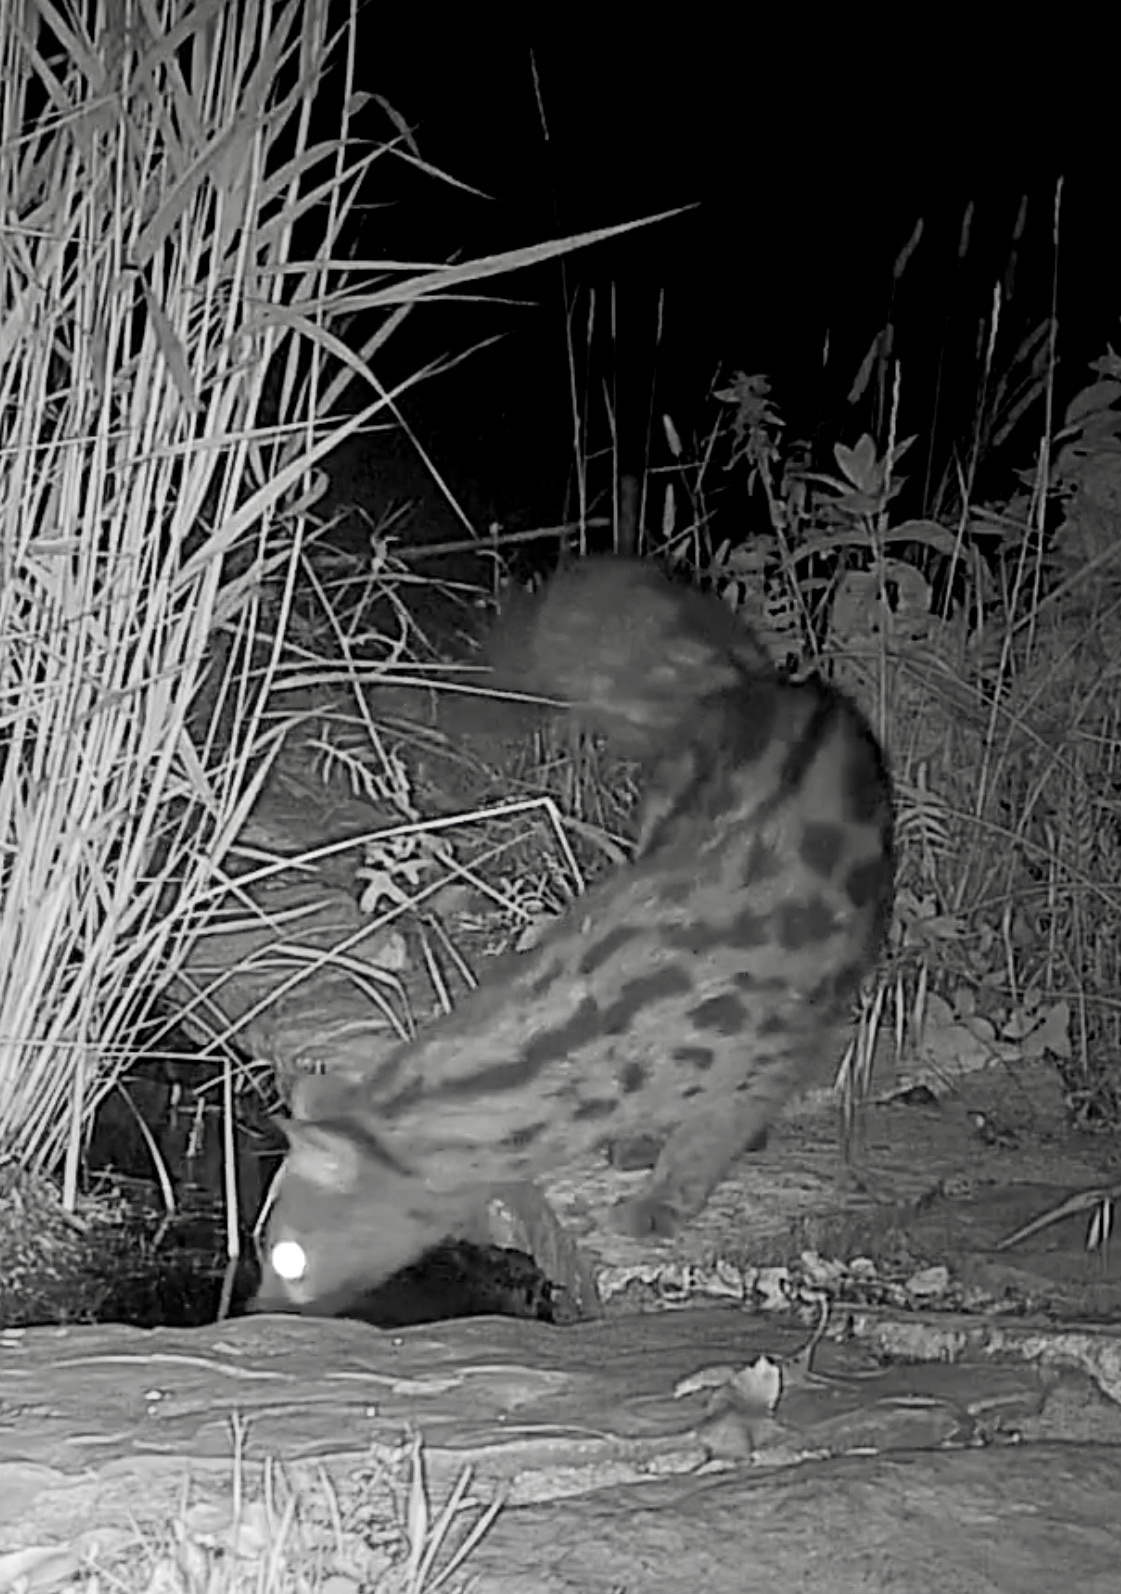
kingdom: Animalia
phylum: Chordata
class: Mammalia
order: Carnivora
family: Viverridae
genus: Genetta
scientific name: Genetta genetta
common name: Common genet
